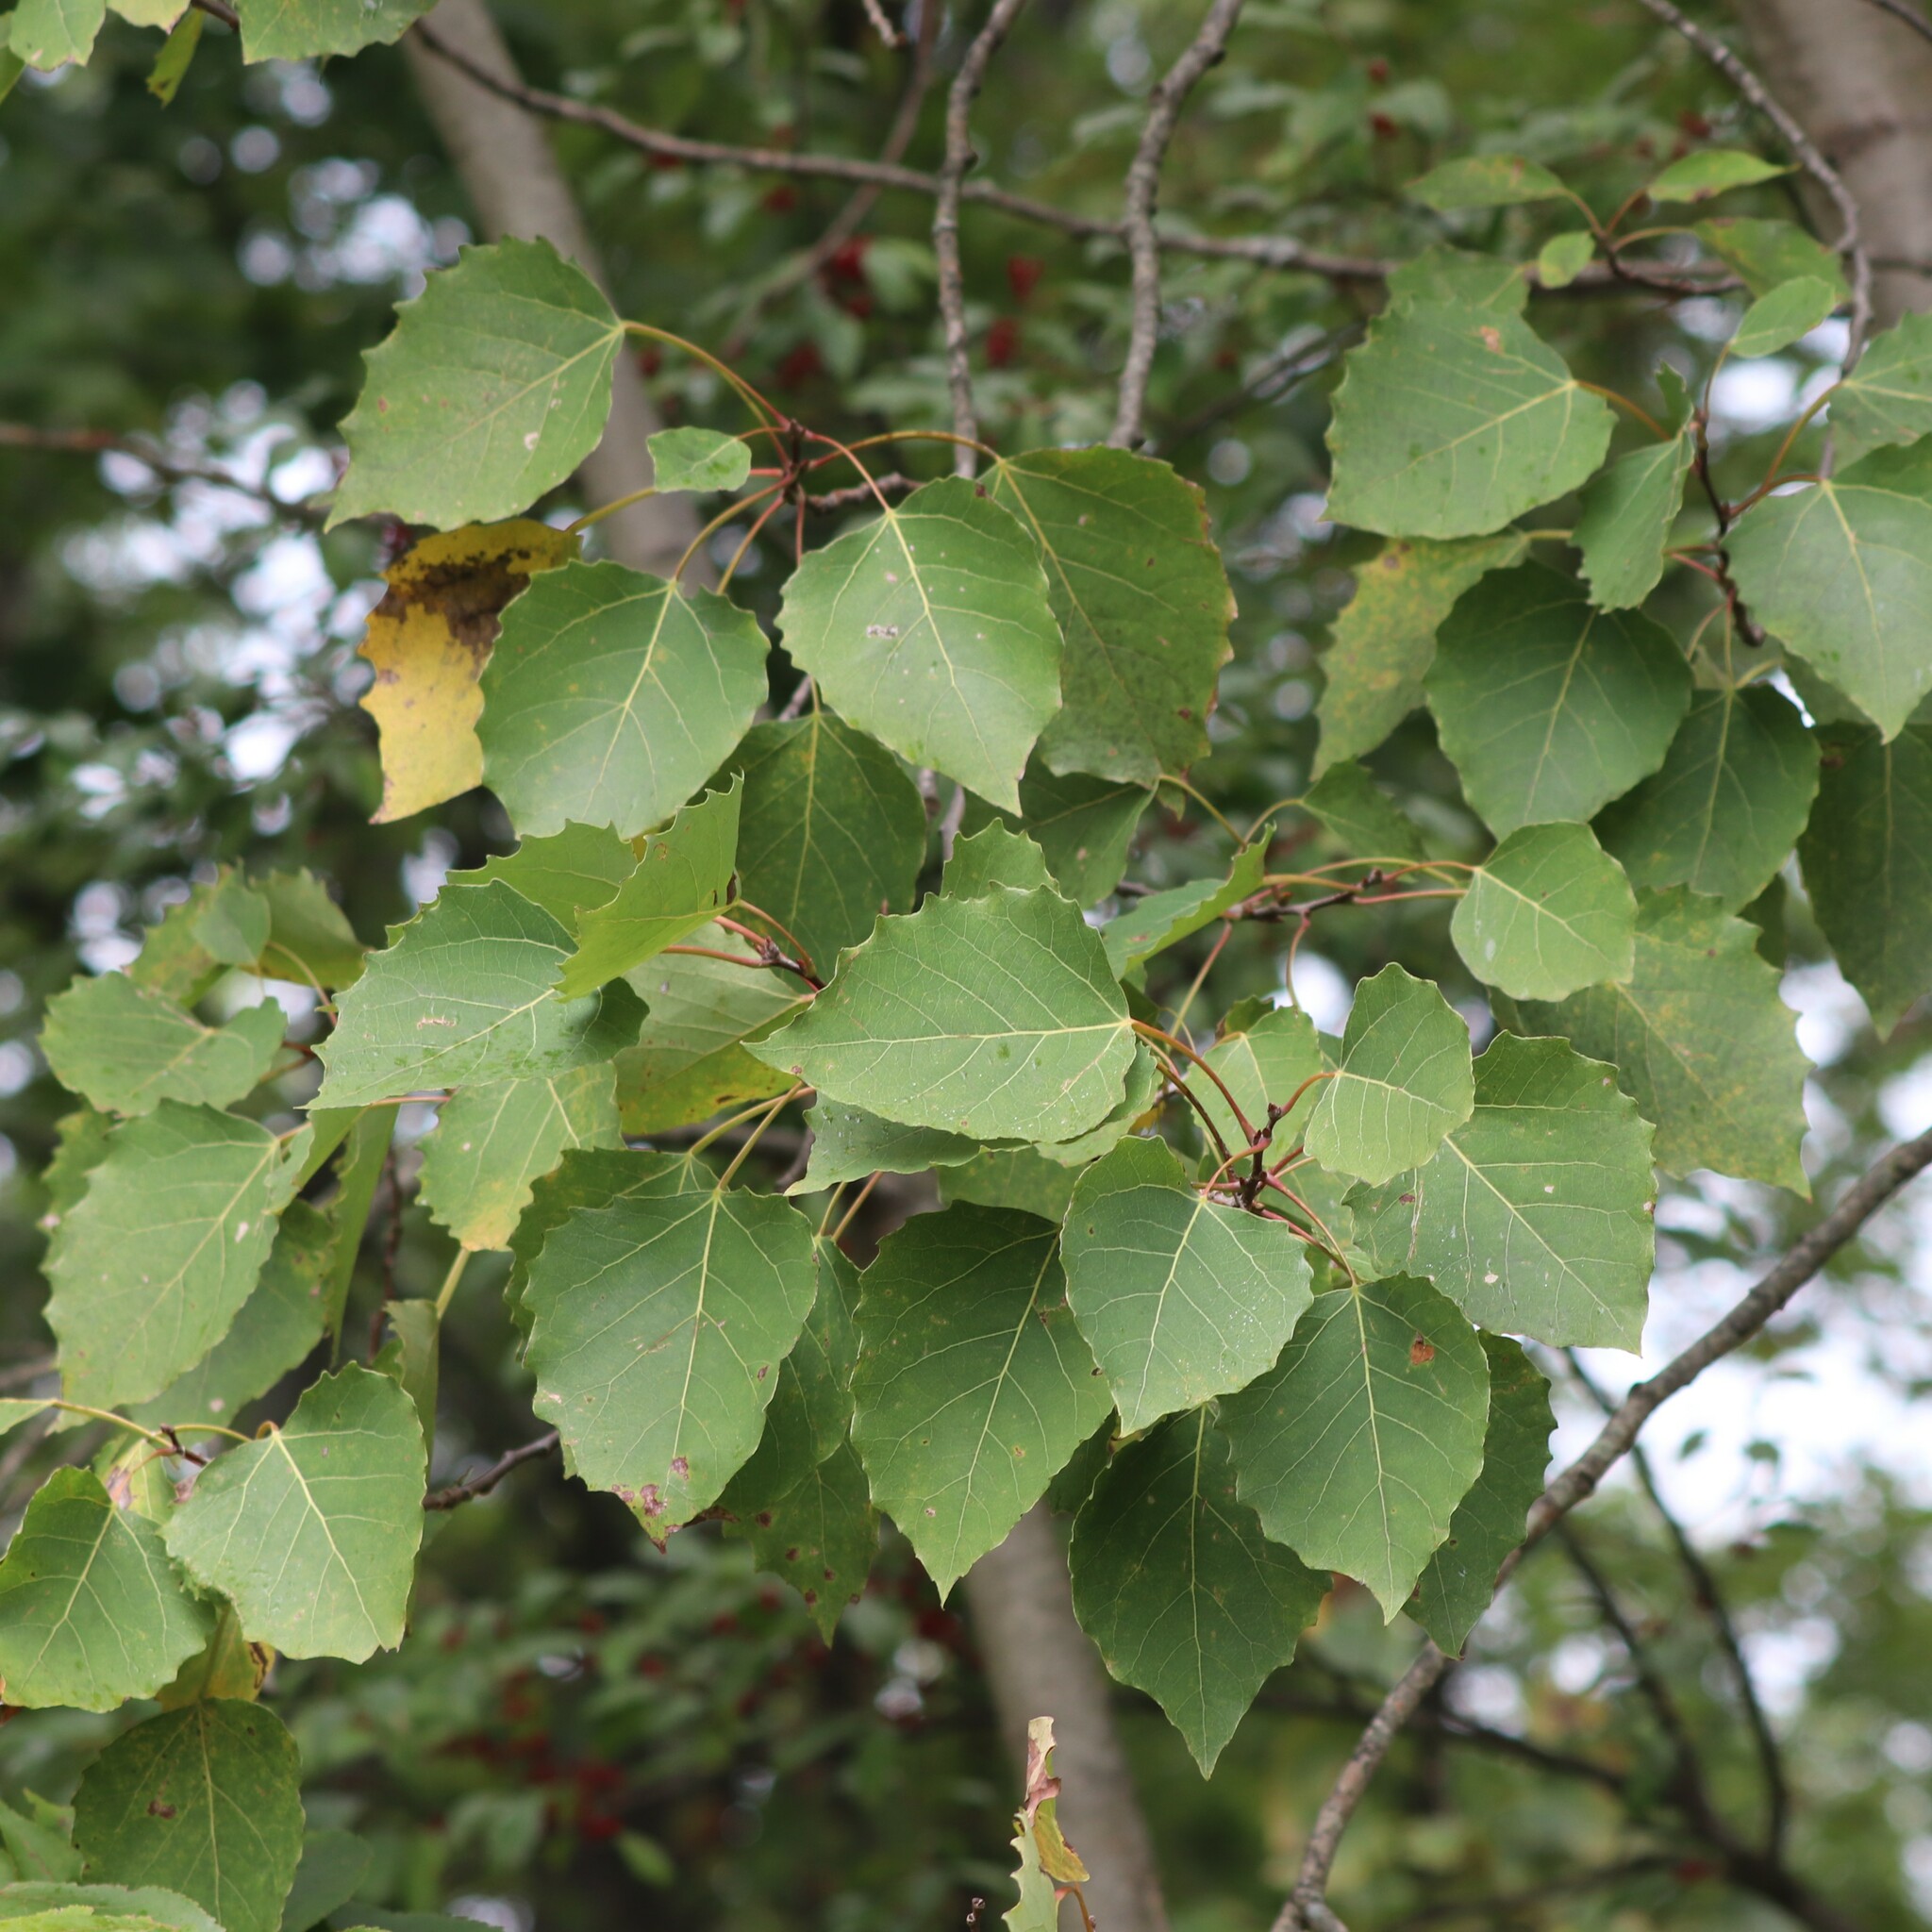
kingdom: Plantae
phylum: Tracheophyta
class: Magnoliopsida
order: Malpighiales
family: Salicaceae
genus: Populus
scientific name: Populus grandidentata
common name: Bigtooth aspen
